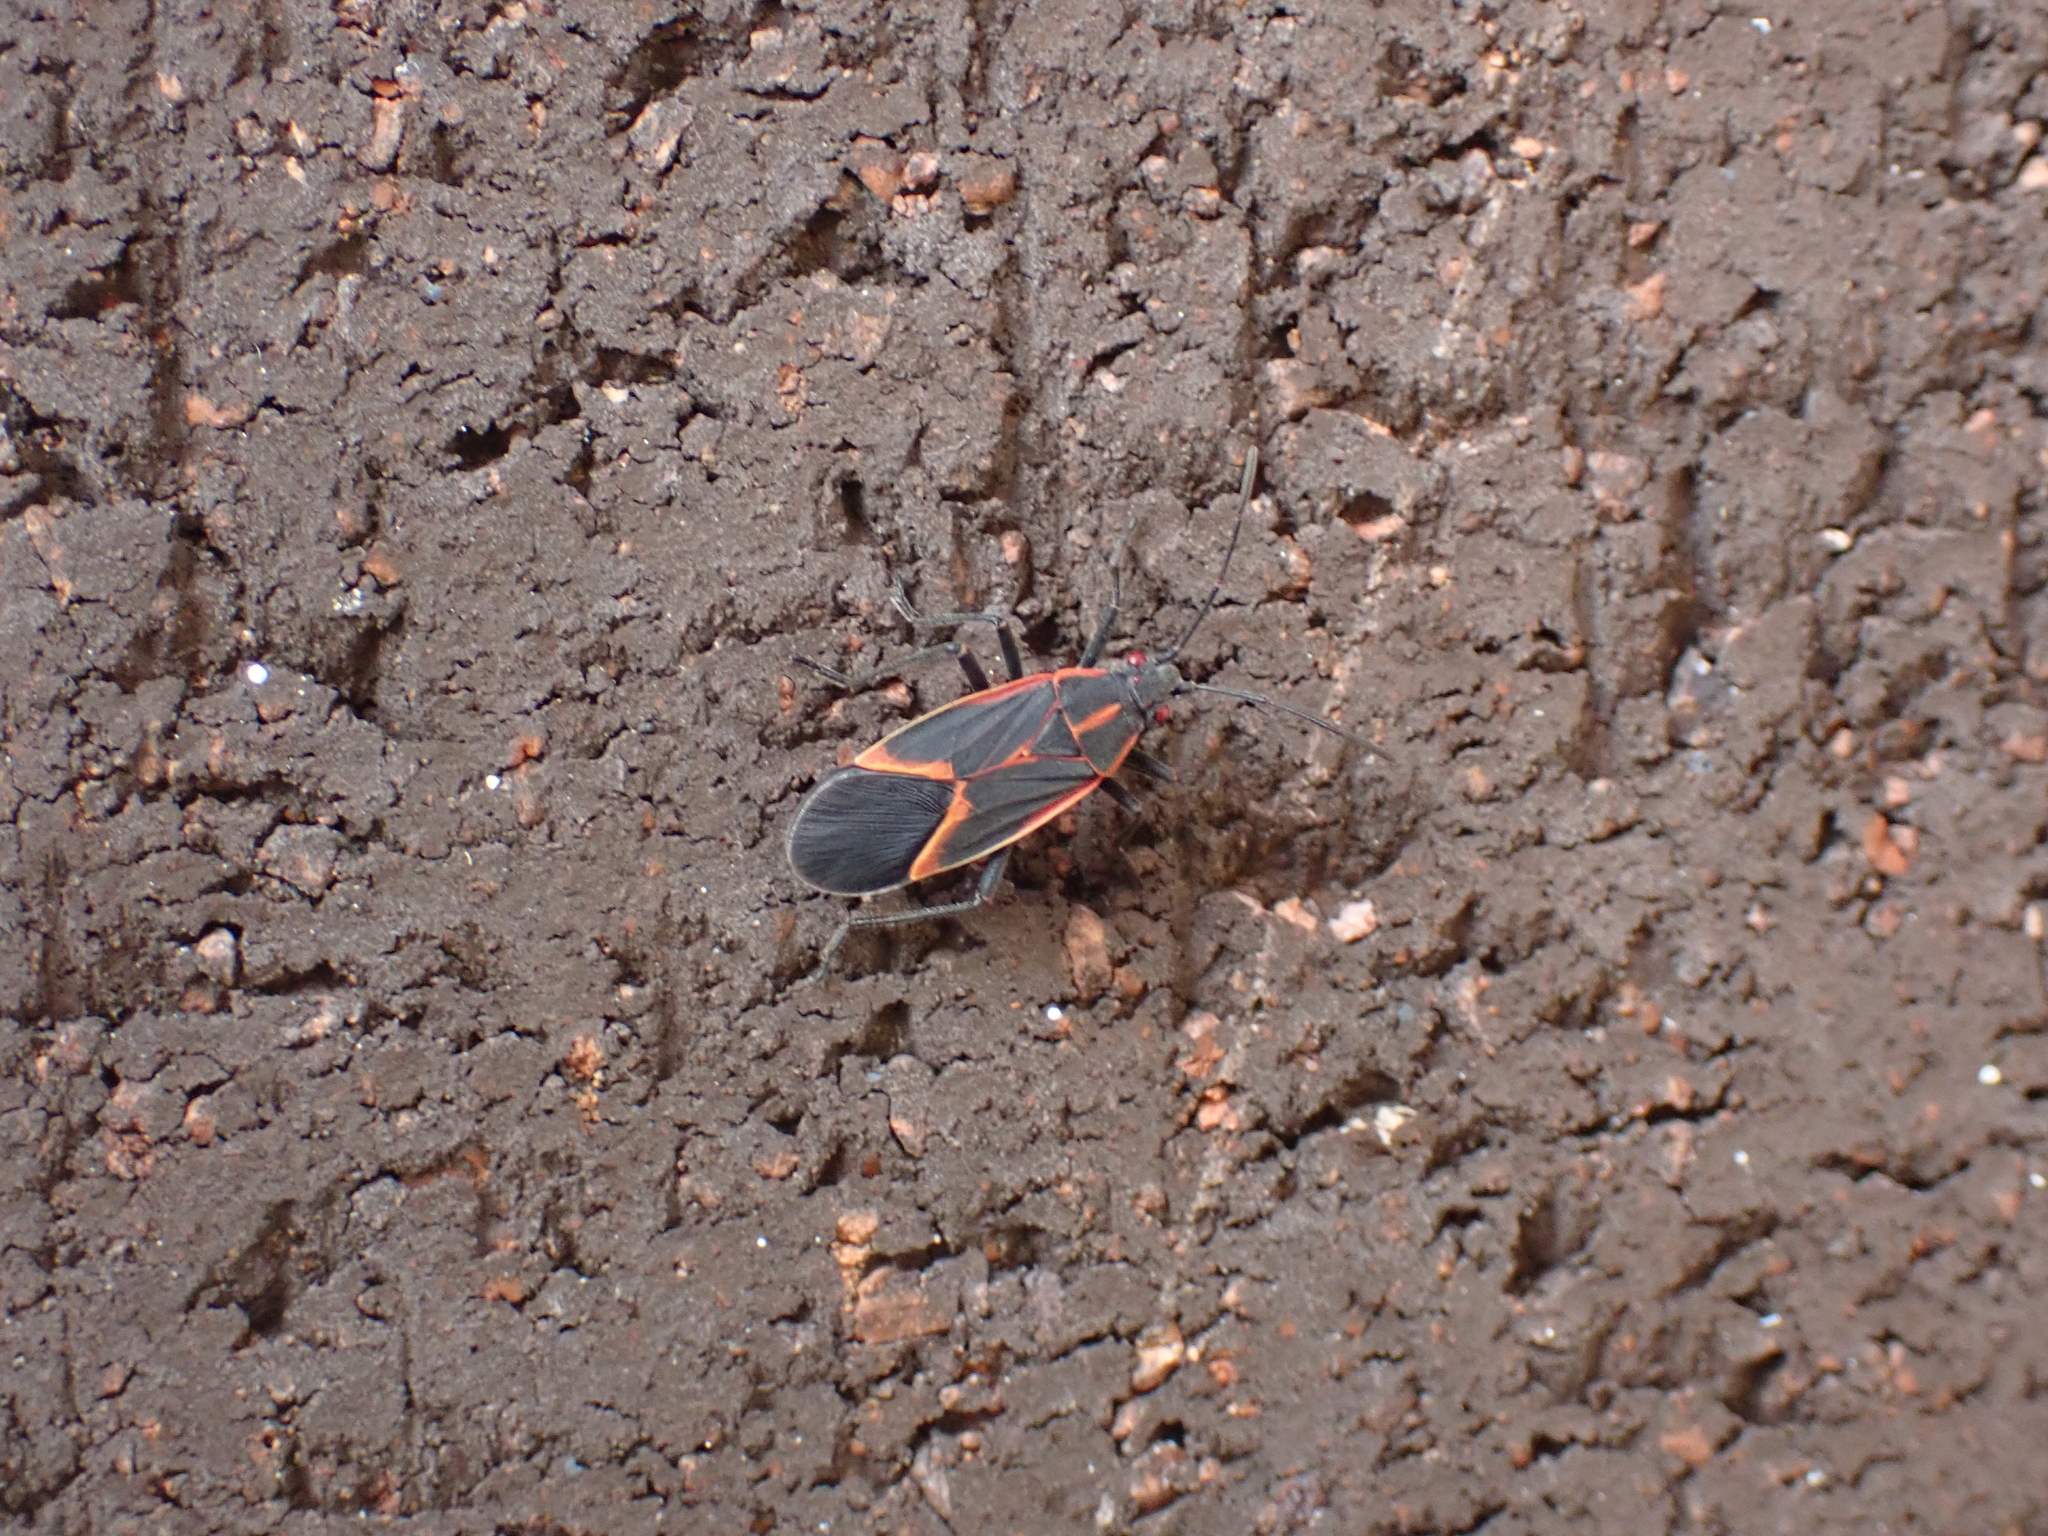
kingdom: Animalia
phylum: Arthropoda
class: Insecta
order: Hemiptera
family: Rhopalidae
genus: Boisea
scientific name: Boisea trivittata
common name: Boxelder bug
